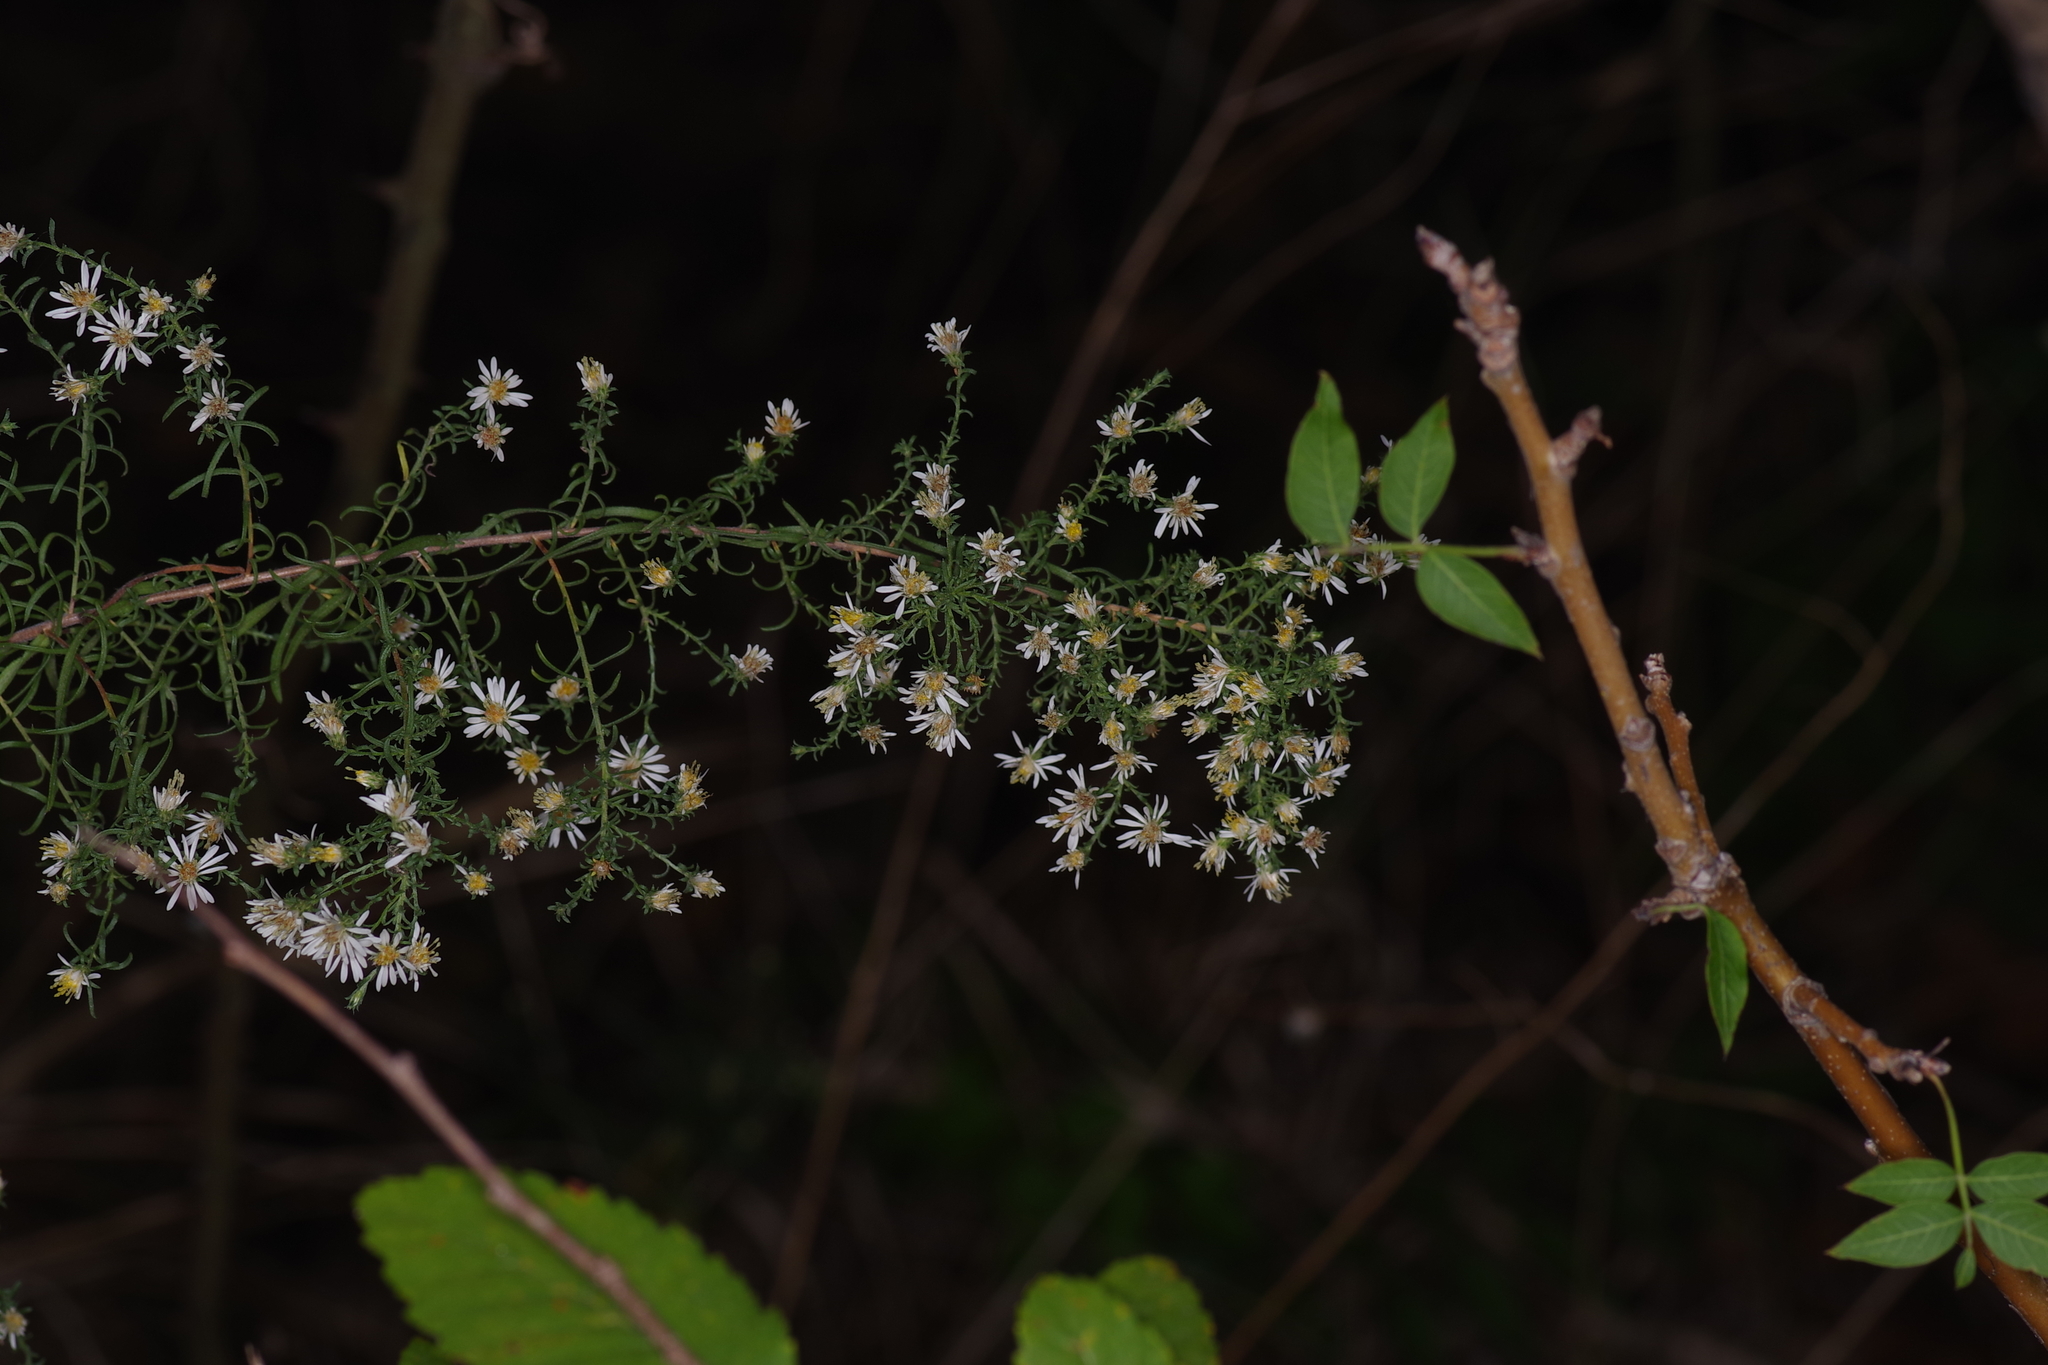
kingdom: Plantae
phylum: Tracheophyta
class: Magnoliopsida
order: Asterales
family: Asteraceae
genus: Symphyotrichum
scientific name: Symphyotrichum ericoides
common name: Heath aster
